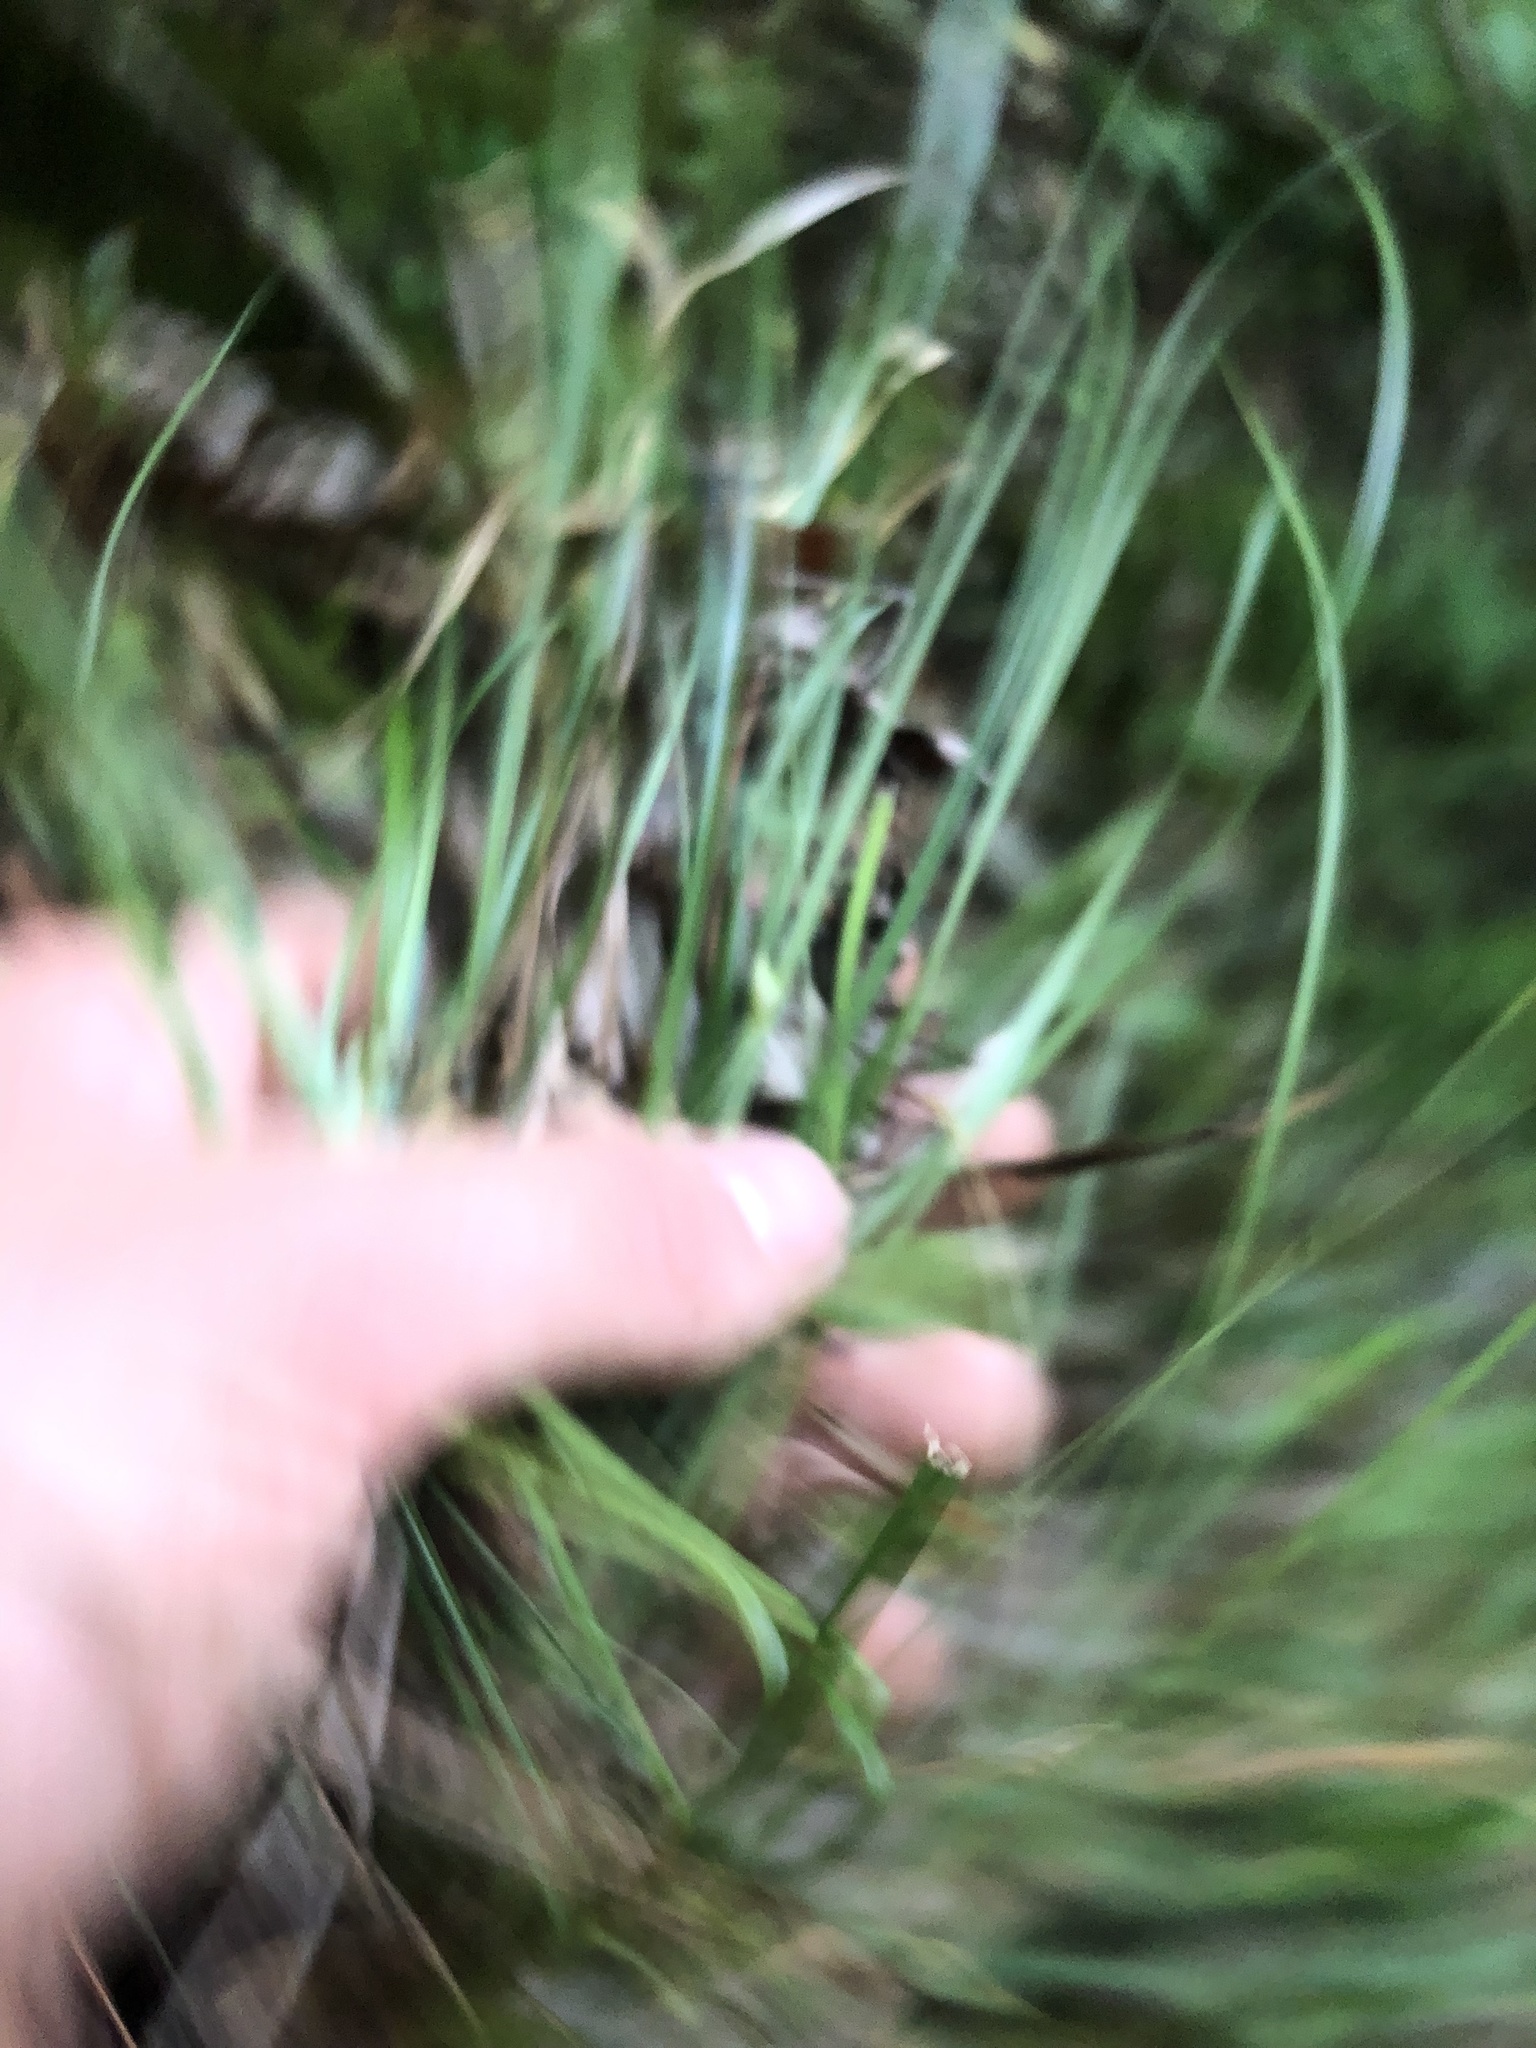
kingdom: Plantae
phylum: Tracheophyta
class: Liliopsida
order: Poales
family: Cyperaceae
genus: Carex
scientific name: Carex superata
